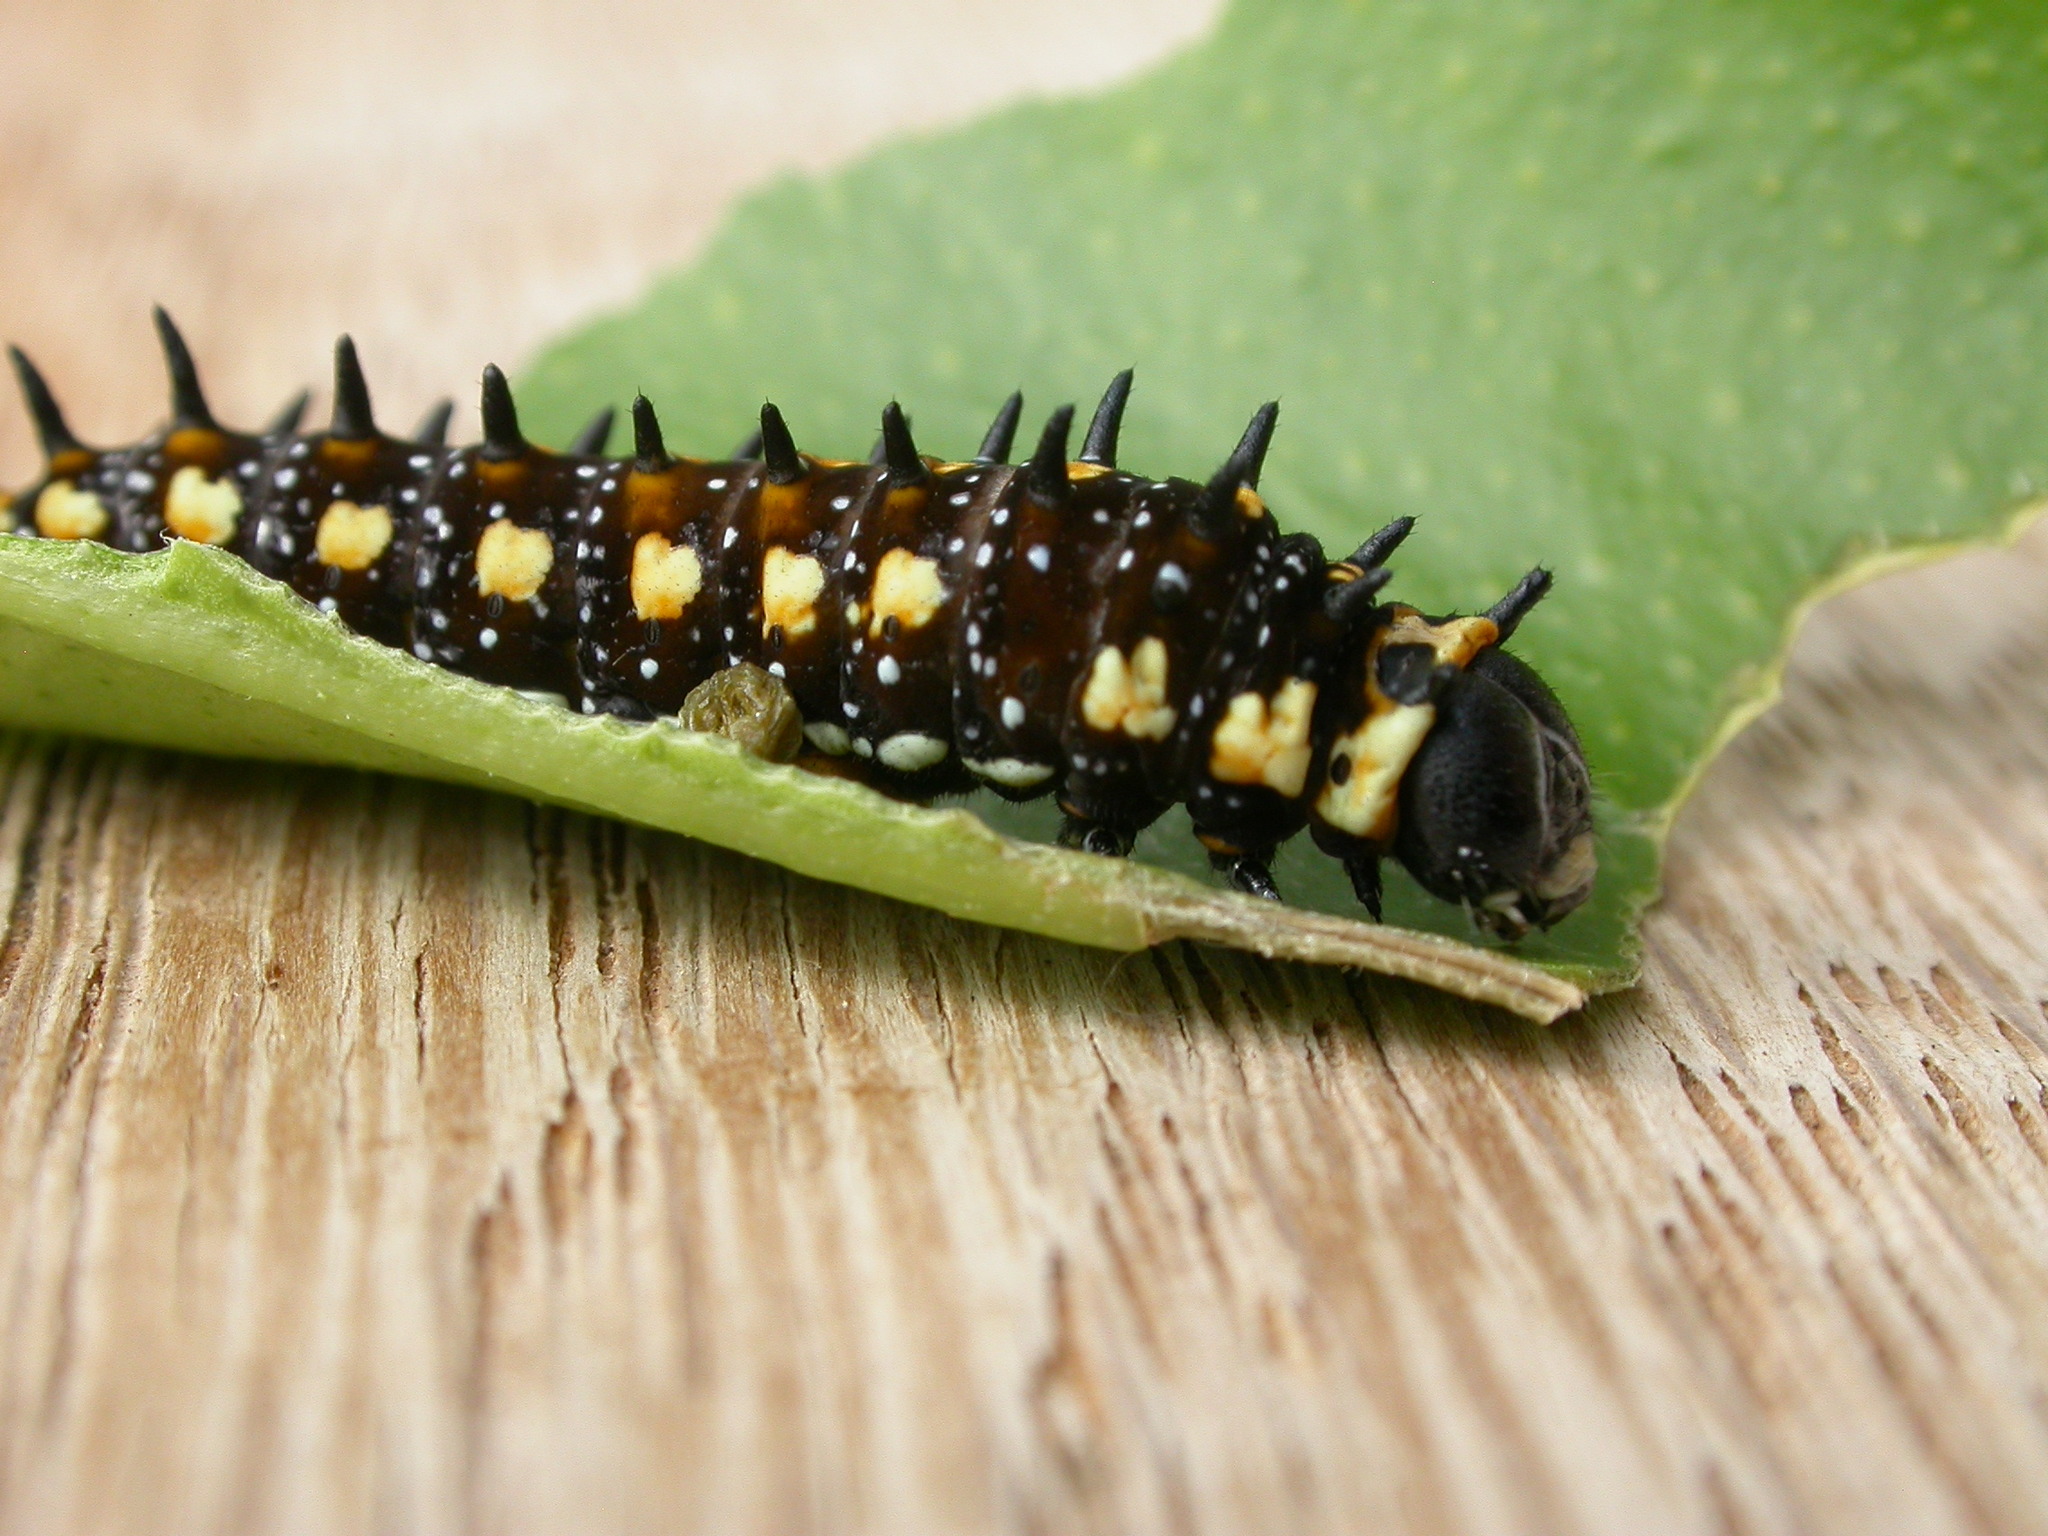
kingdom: Animalia
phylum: Arthropoda
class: Insecta
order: Lepidoptera
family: Papilionidae
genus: Papilio
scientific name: Papilio anactus
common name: Dingy swallowtail
